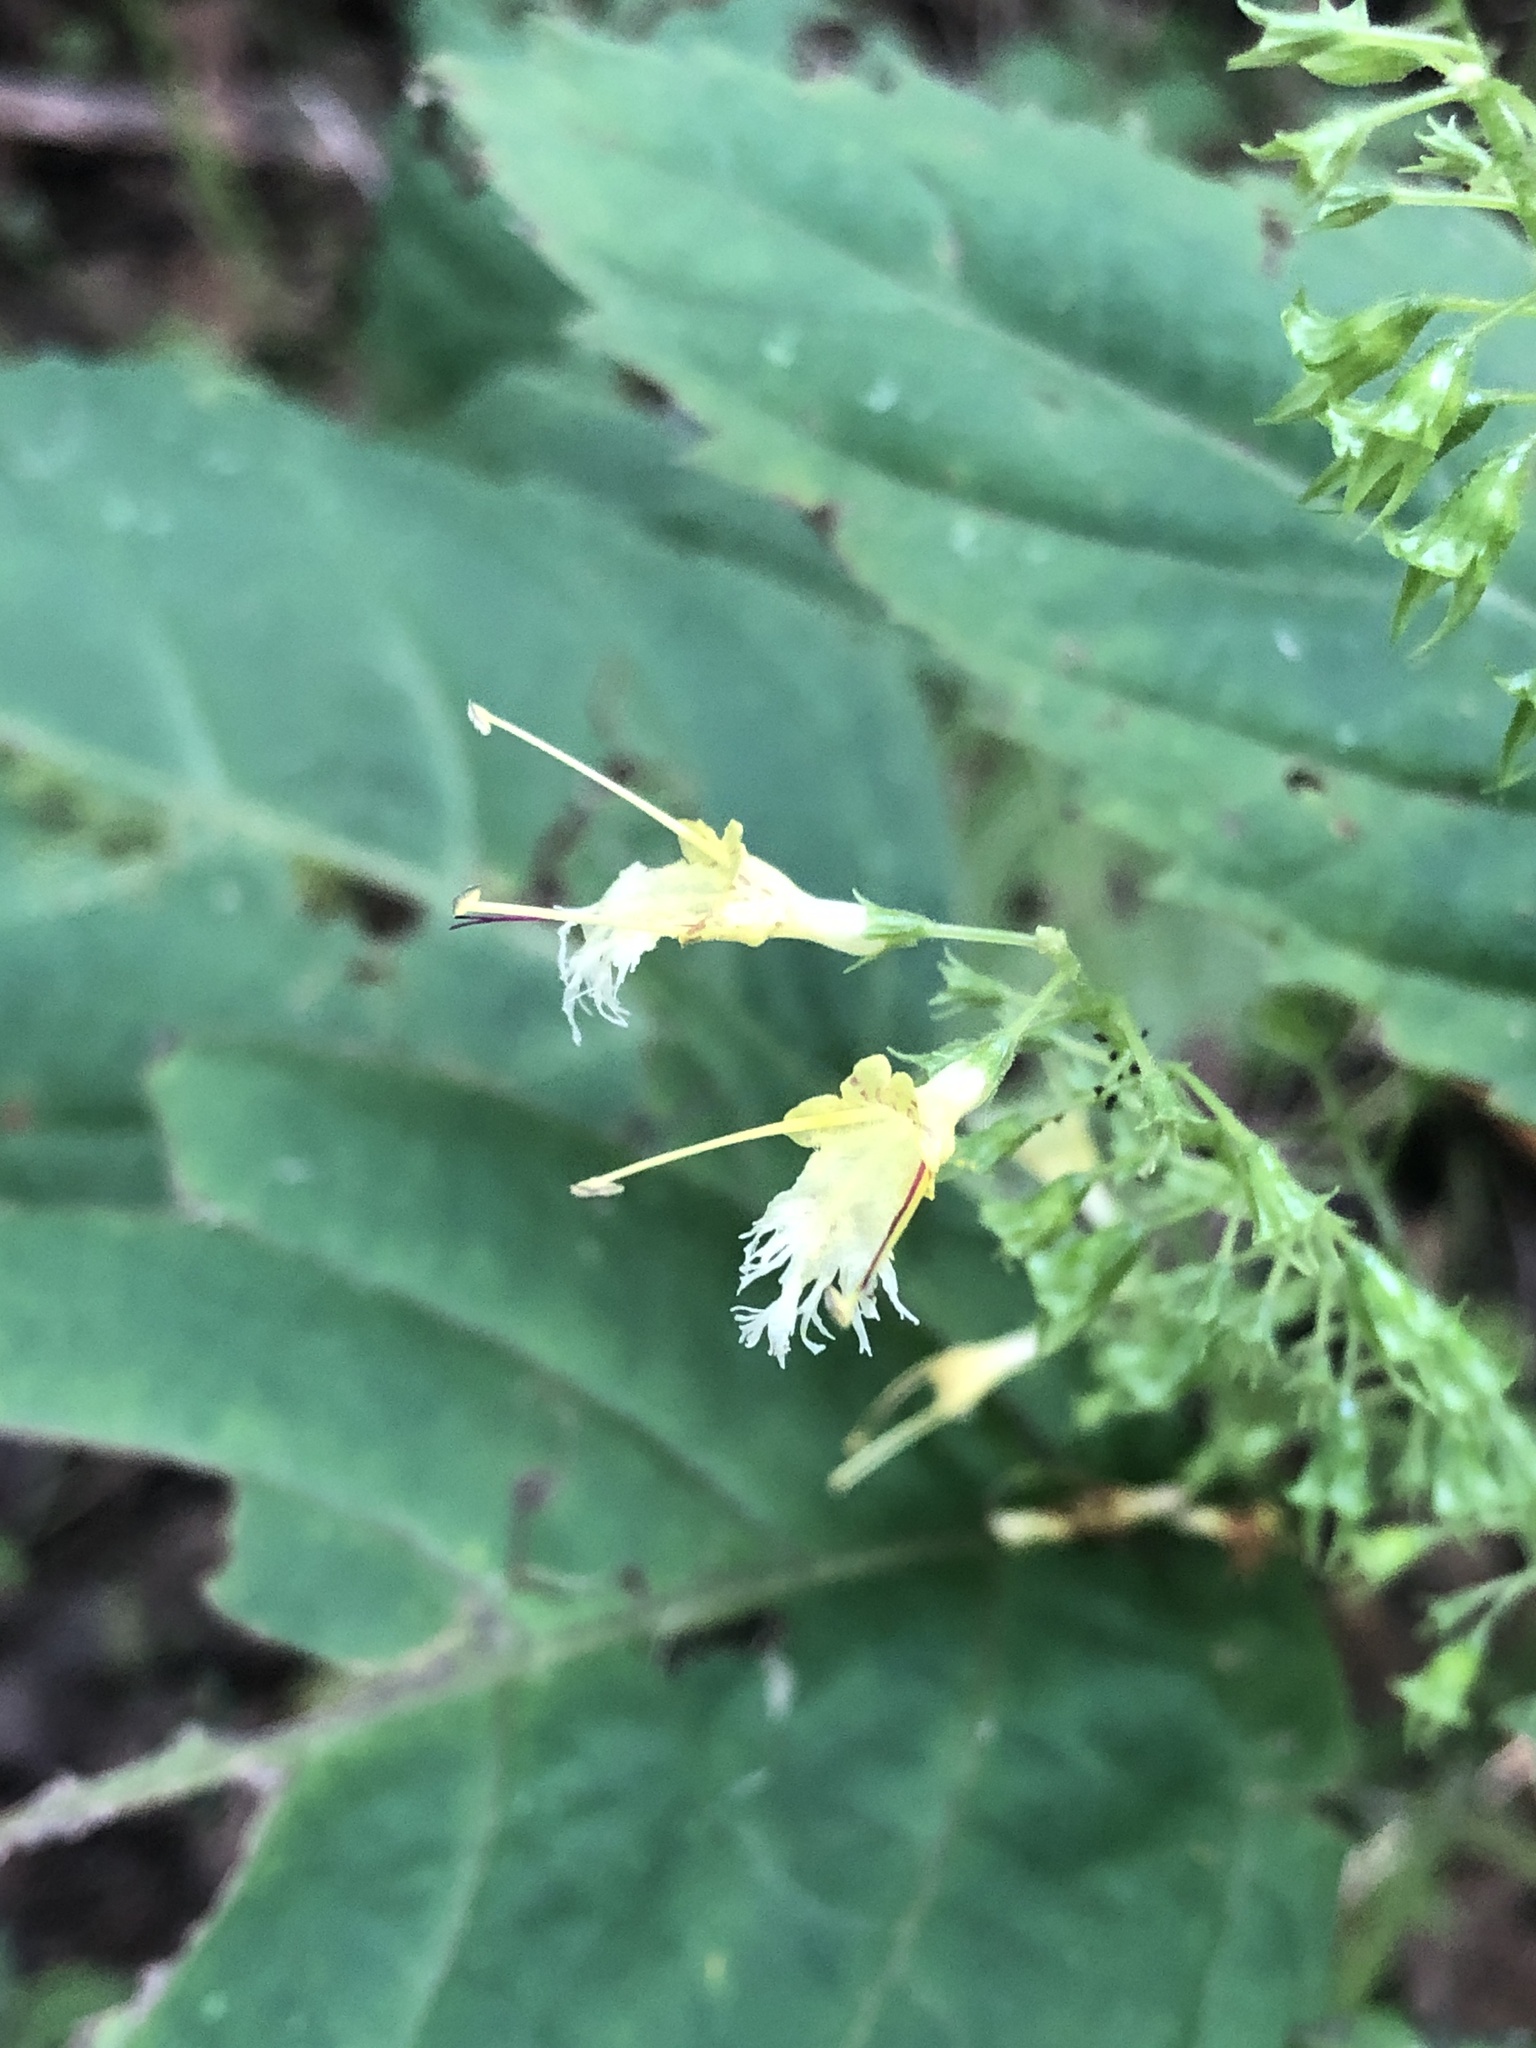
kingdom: Plantae
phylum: Tracheophyta
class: Magnoliopsida
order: Lamiales
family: Lamiaceae
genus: Collinsonia
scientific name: Collinsonia canadensis
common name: Northern horsebalm
